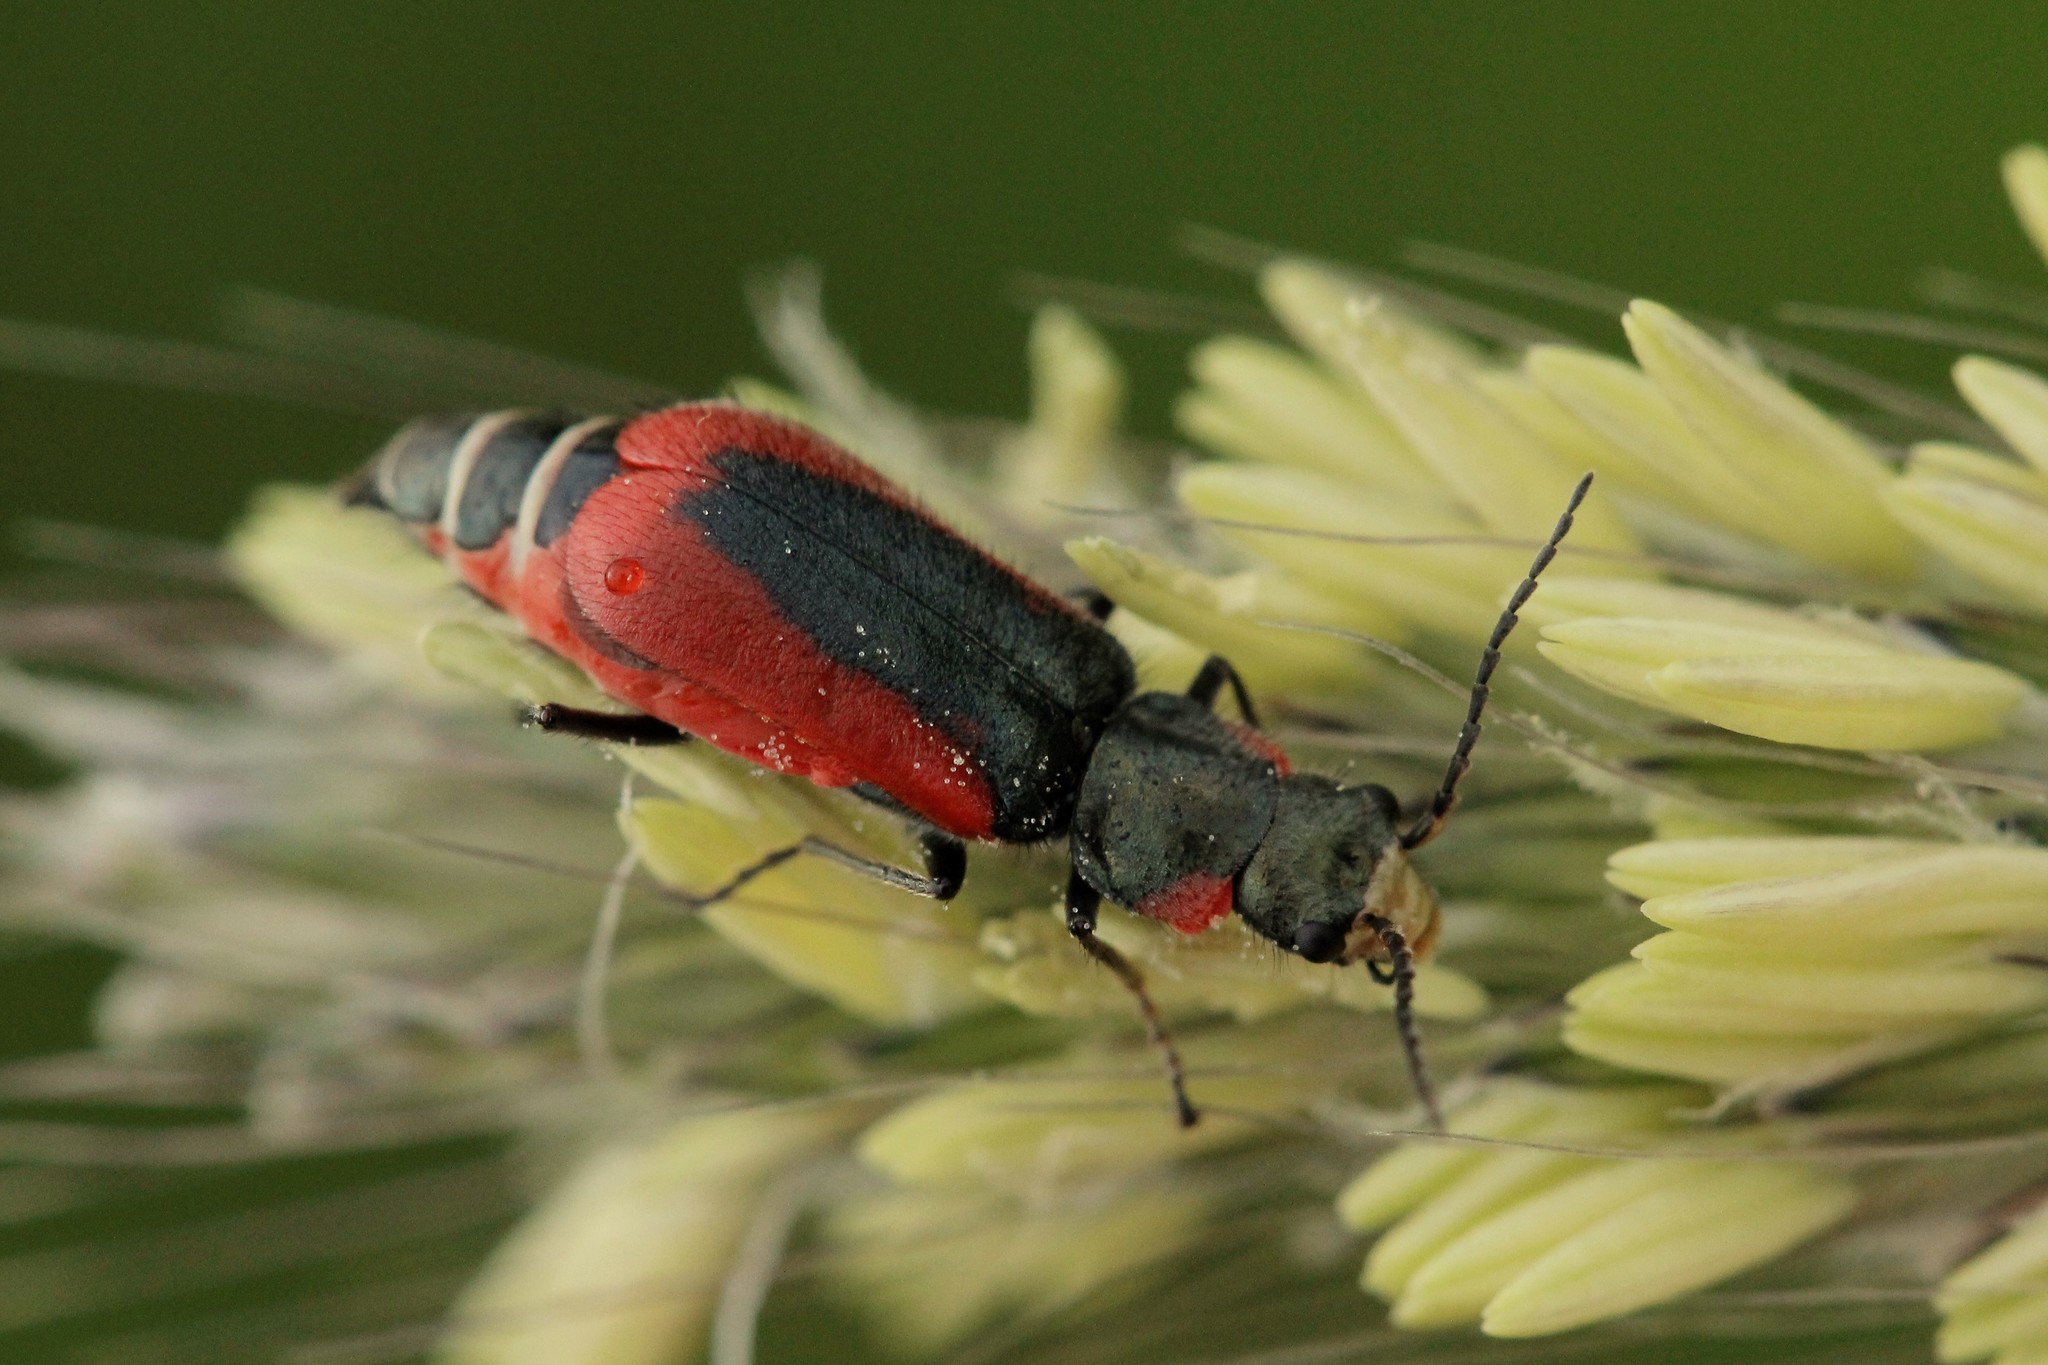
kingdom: Animalia
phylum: Arthropoda
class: Insecta
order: Coleoptera
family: Melyridae
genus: Malachius
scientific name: Malachius aeneus
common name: Scarlet malachite beetle
